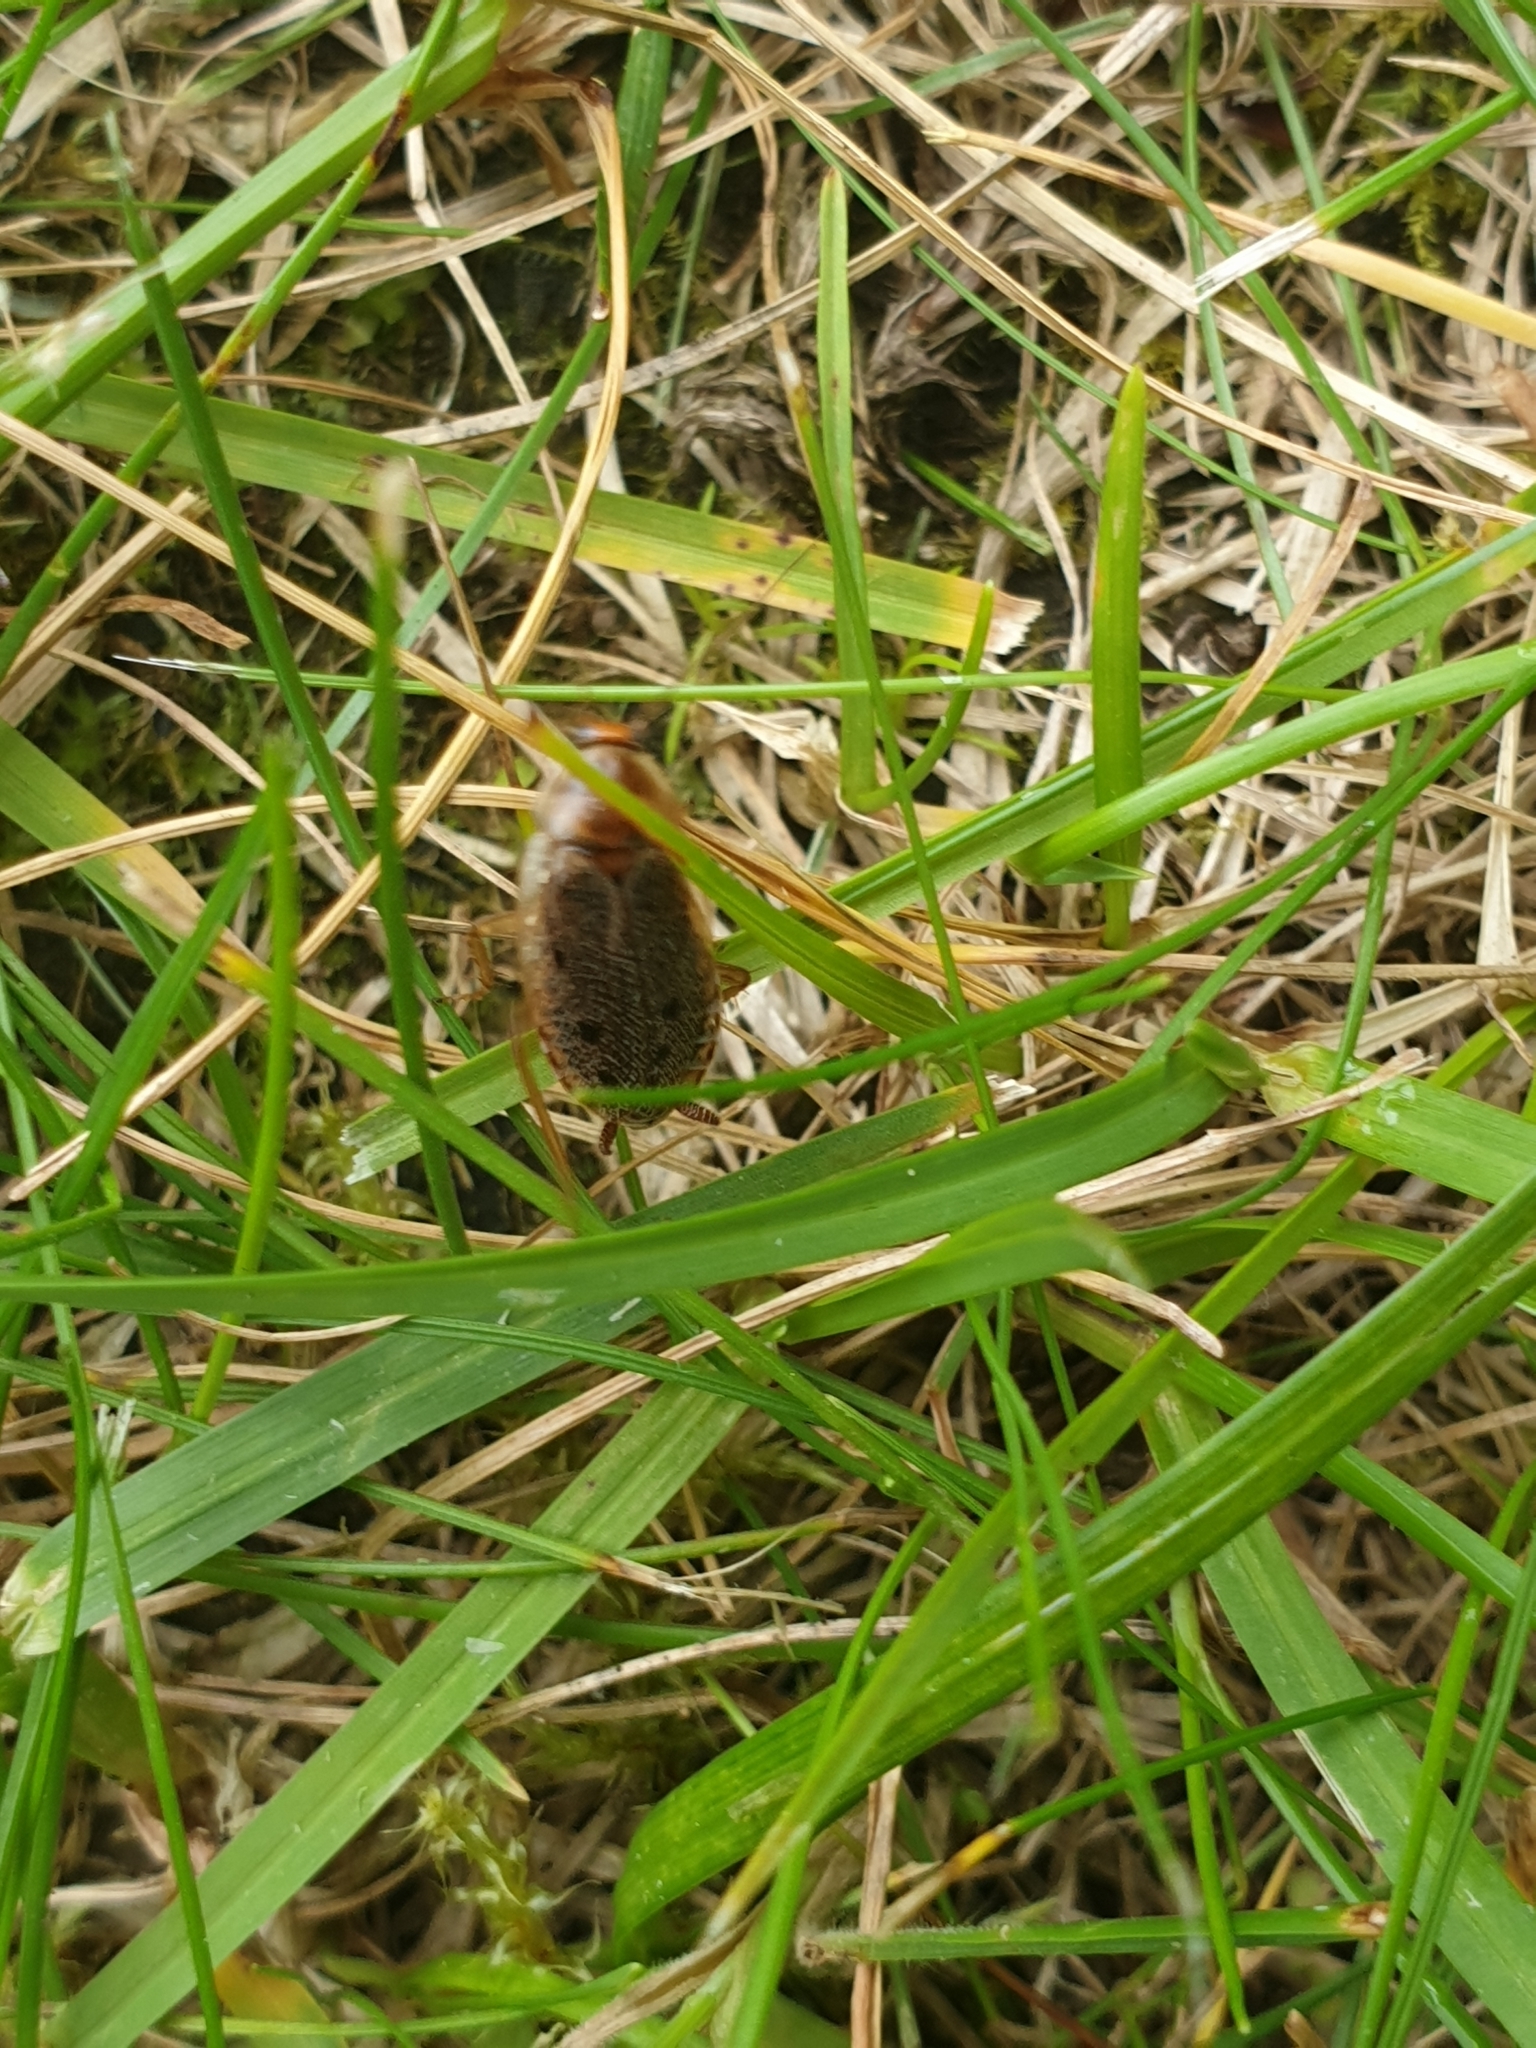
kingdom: Animalia
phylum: Arthropoda
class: Insecta
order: Blattodea
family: Ectobiidae
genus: Ectobius
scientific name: Ectobius lapponicus
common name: Dusky cockroach
